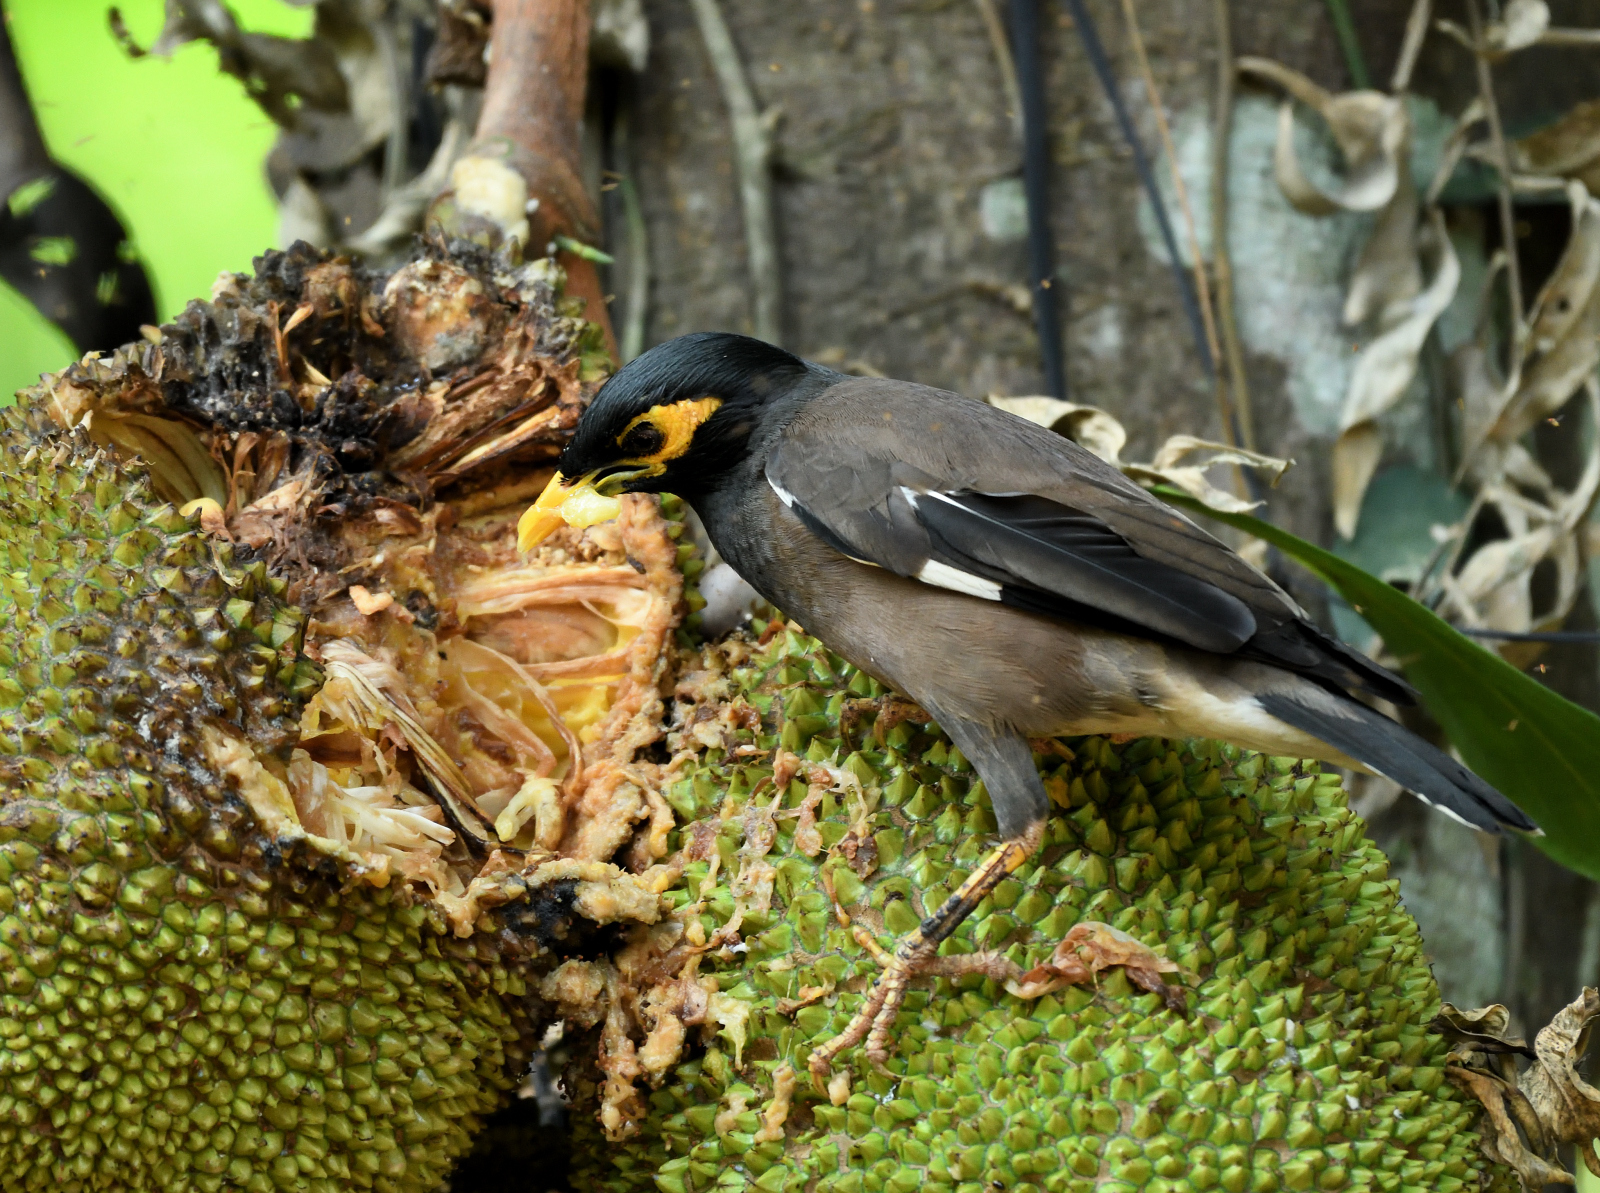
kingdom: Animalia
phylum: Chordata
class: Aves
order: Passeriformes
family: Sturnidae
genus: Acridotheres
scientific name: Acridotheres tristis
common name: Common myna
